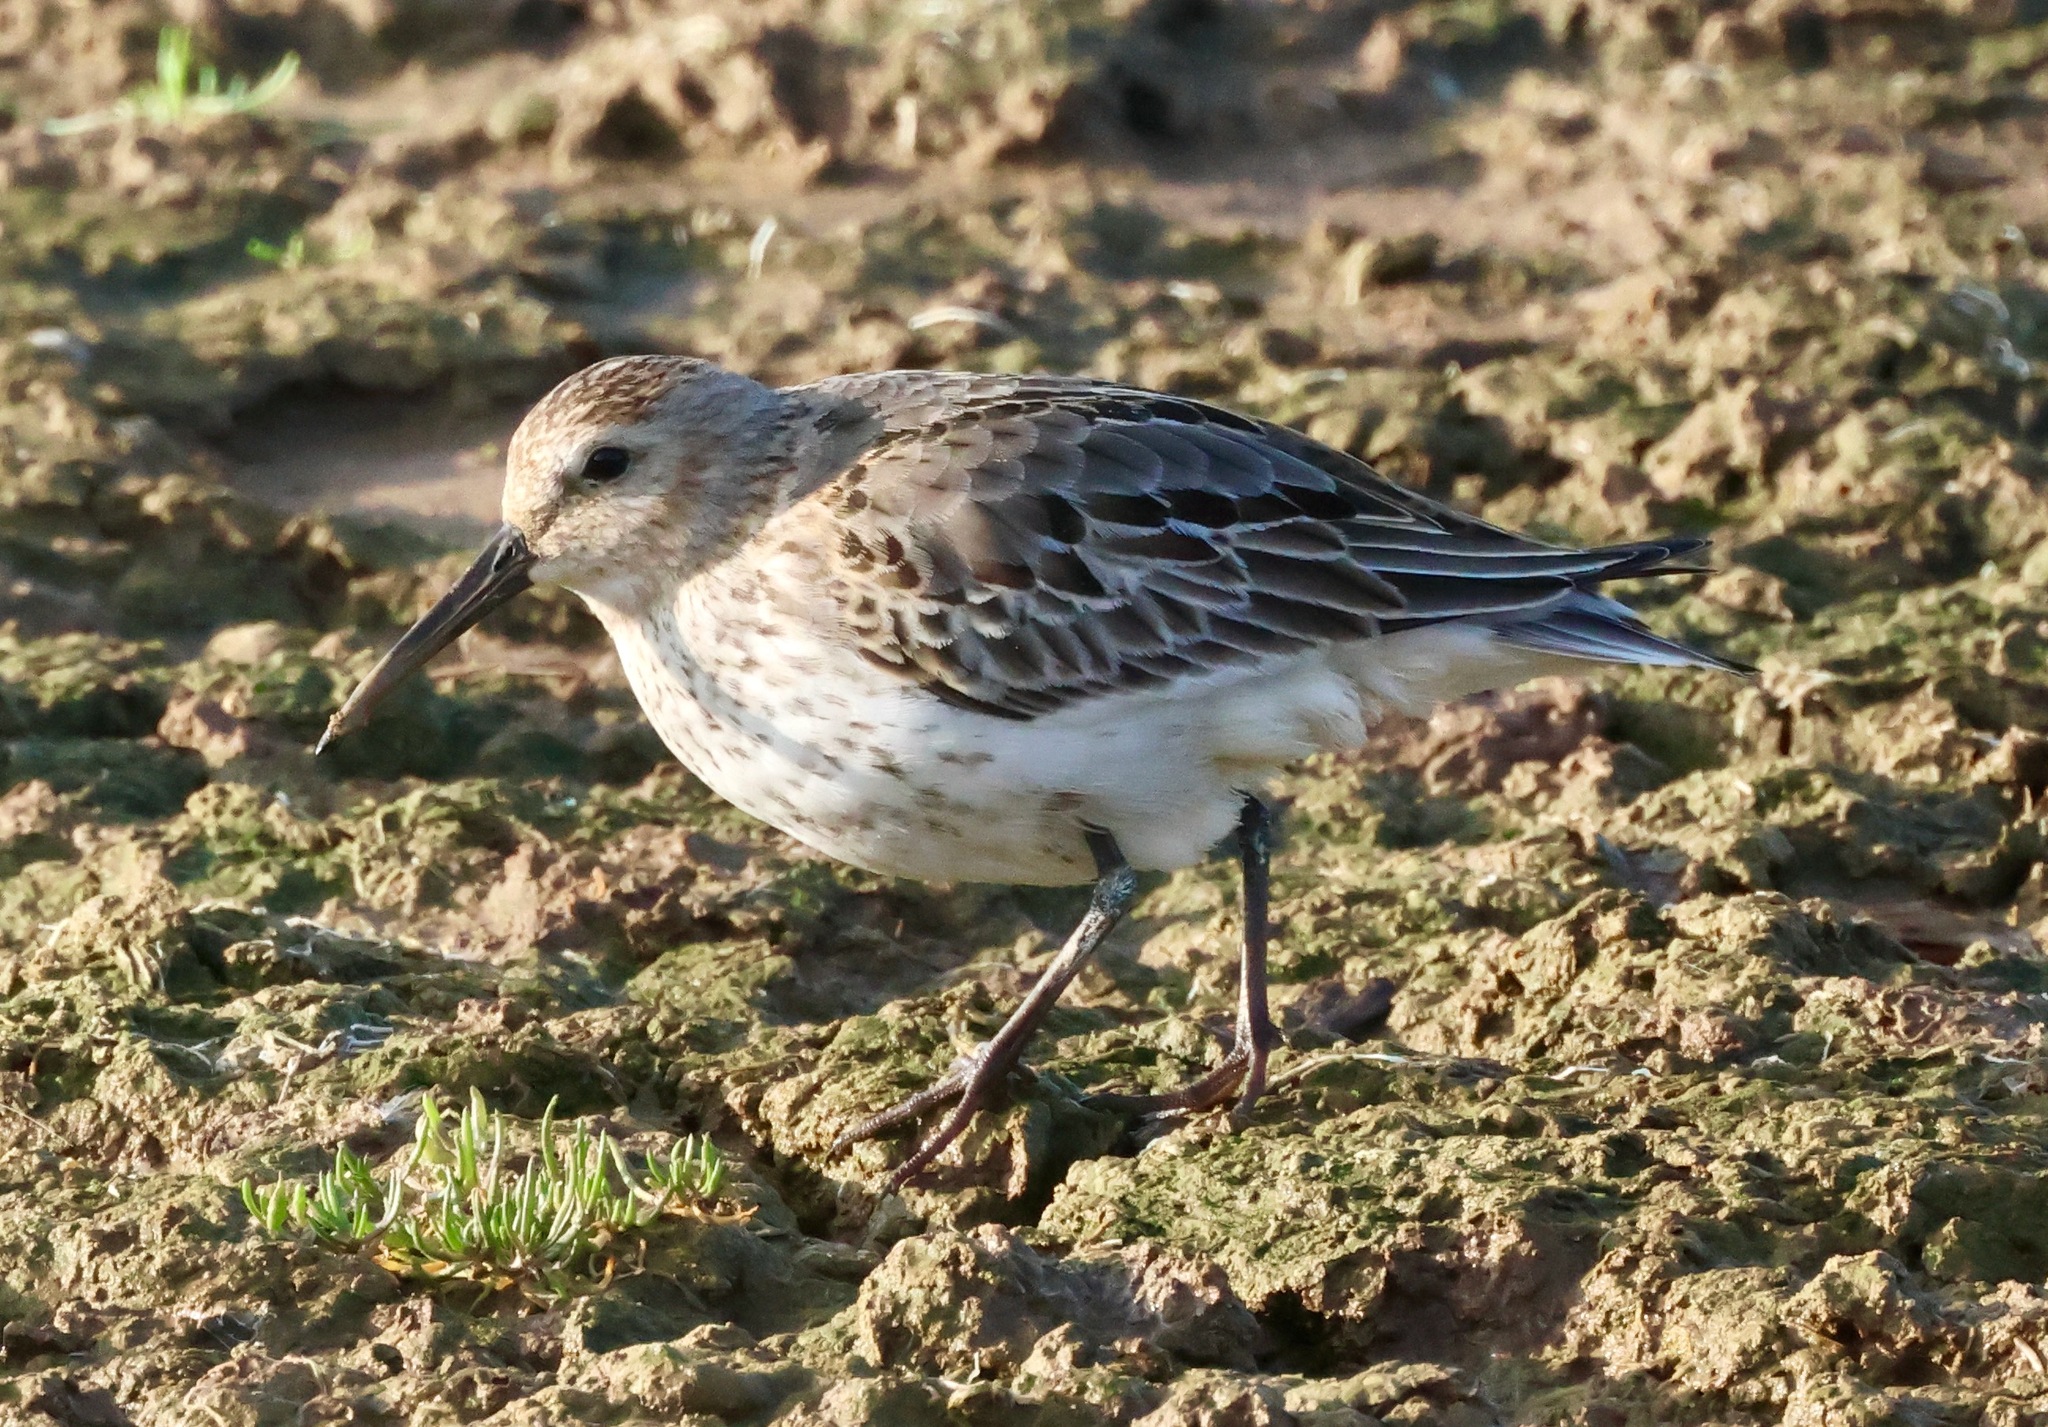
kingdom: Animalia
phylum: Chordata
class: Aves
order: Charadriiformes
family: Scolopacidae
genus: Calidris
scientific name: Calidris alpina
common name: Dunlin
